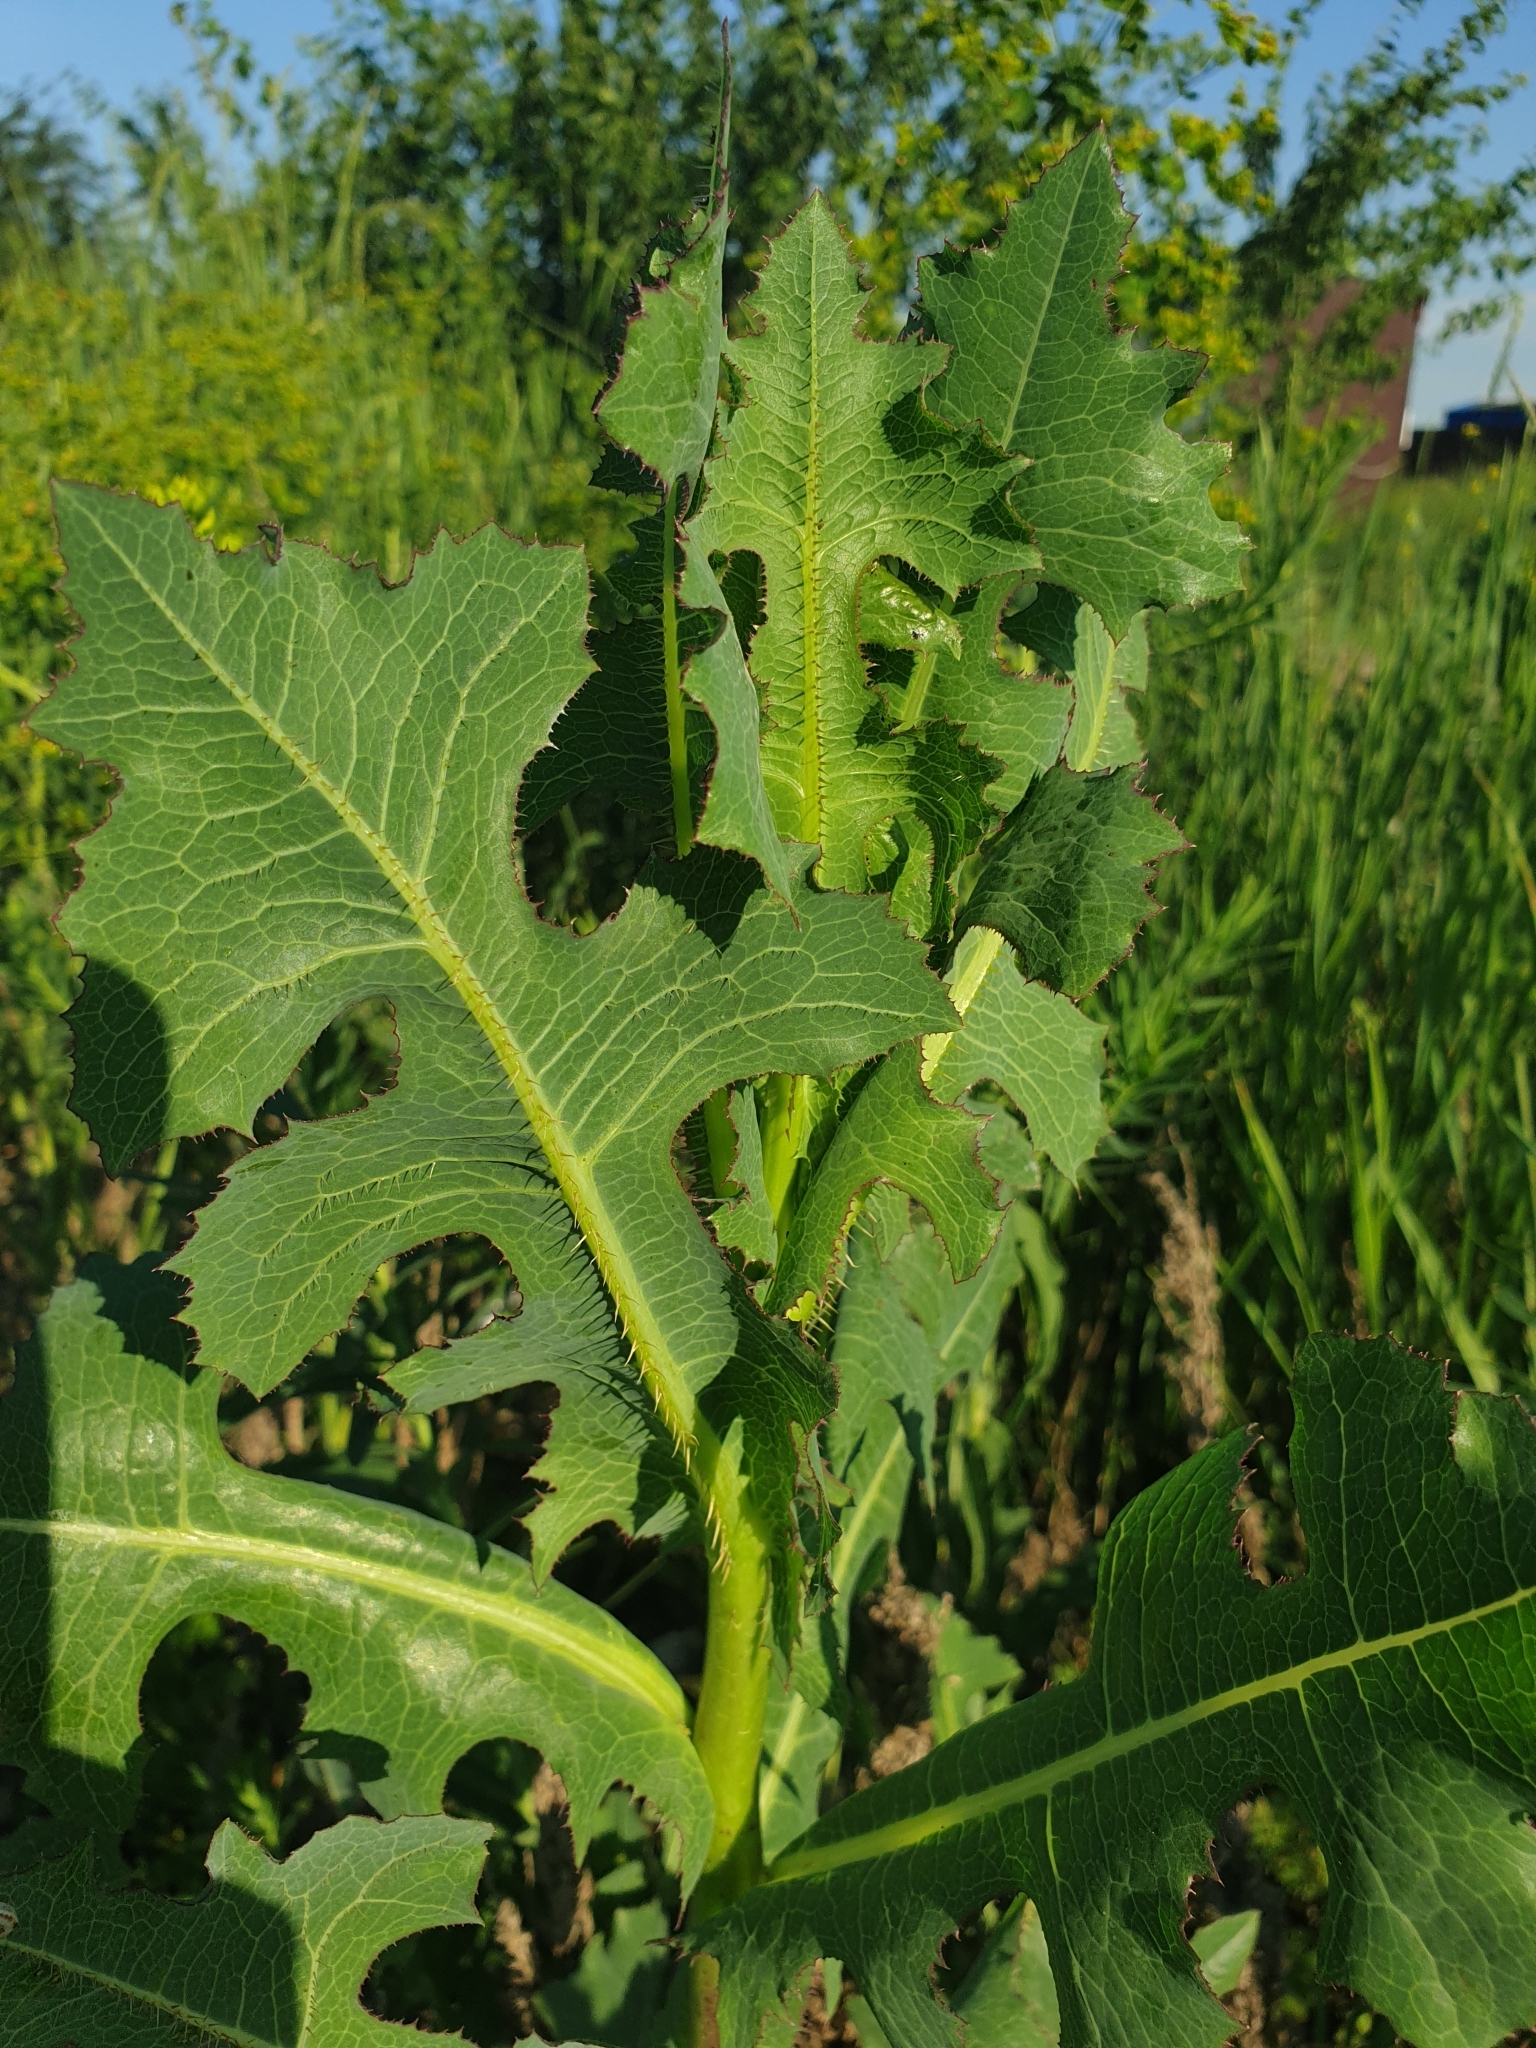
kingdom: Plantae
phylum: Tracheophyta
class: Magnoliopsida
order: Asterales
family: Asteraceae
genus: Lactuca
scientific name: Lactuca serriola
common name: Prickly lettuce
